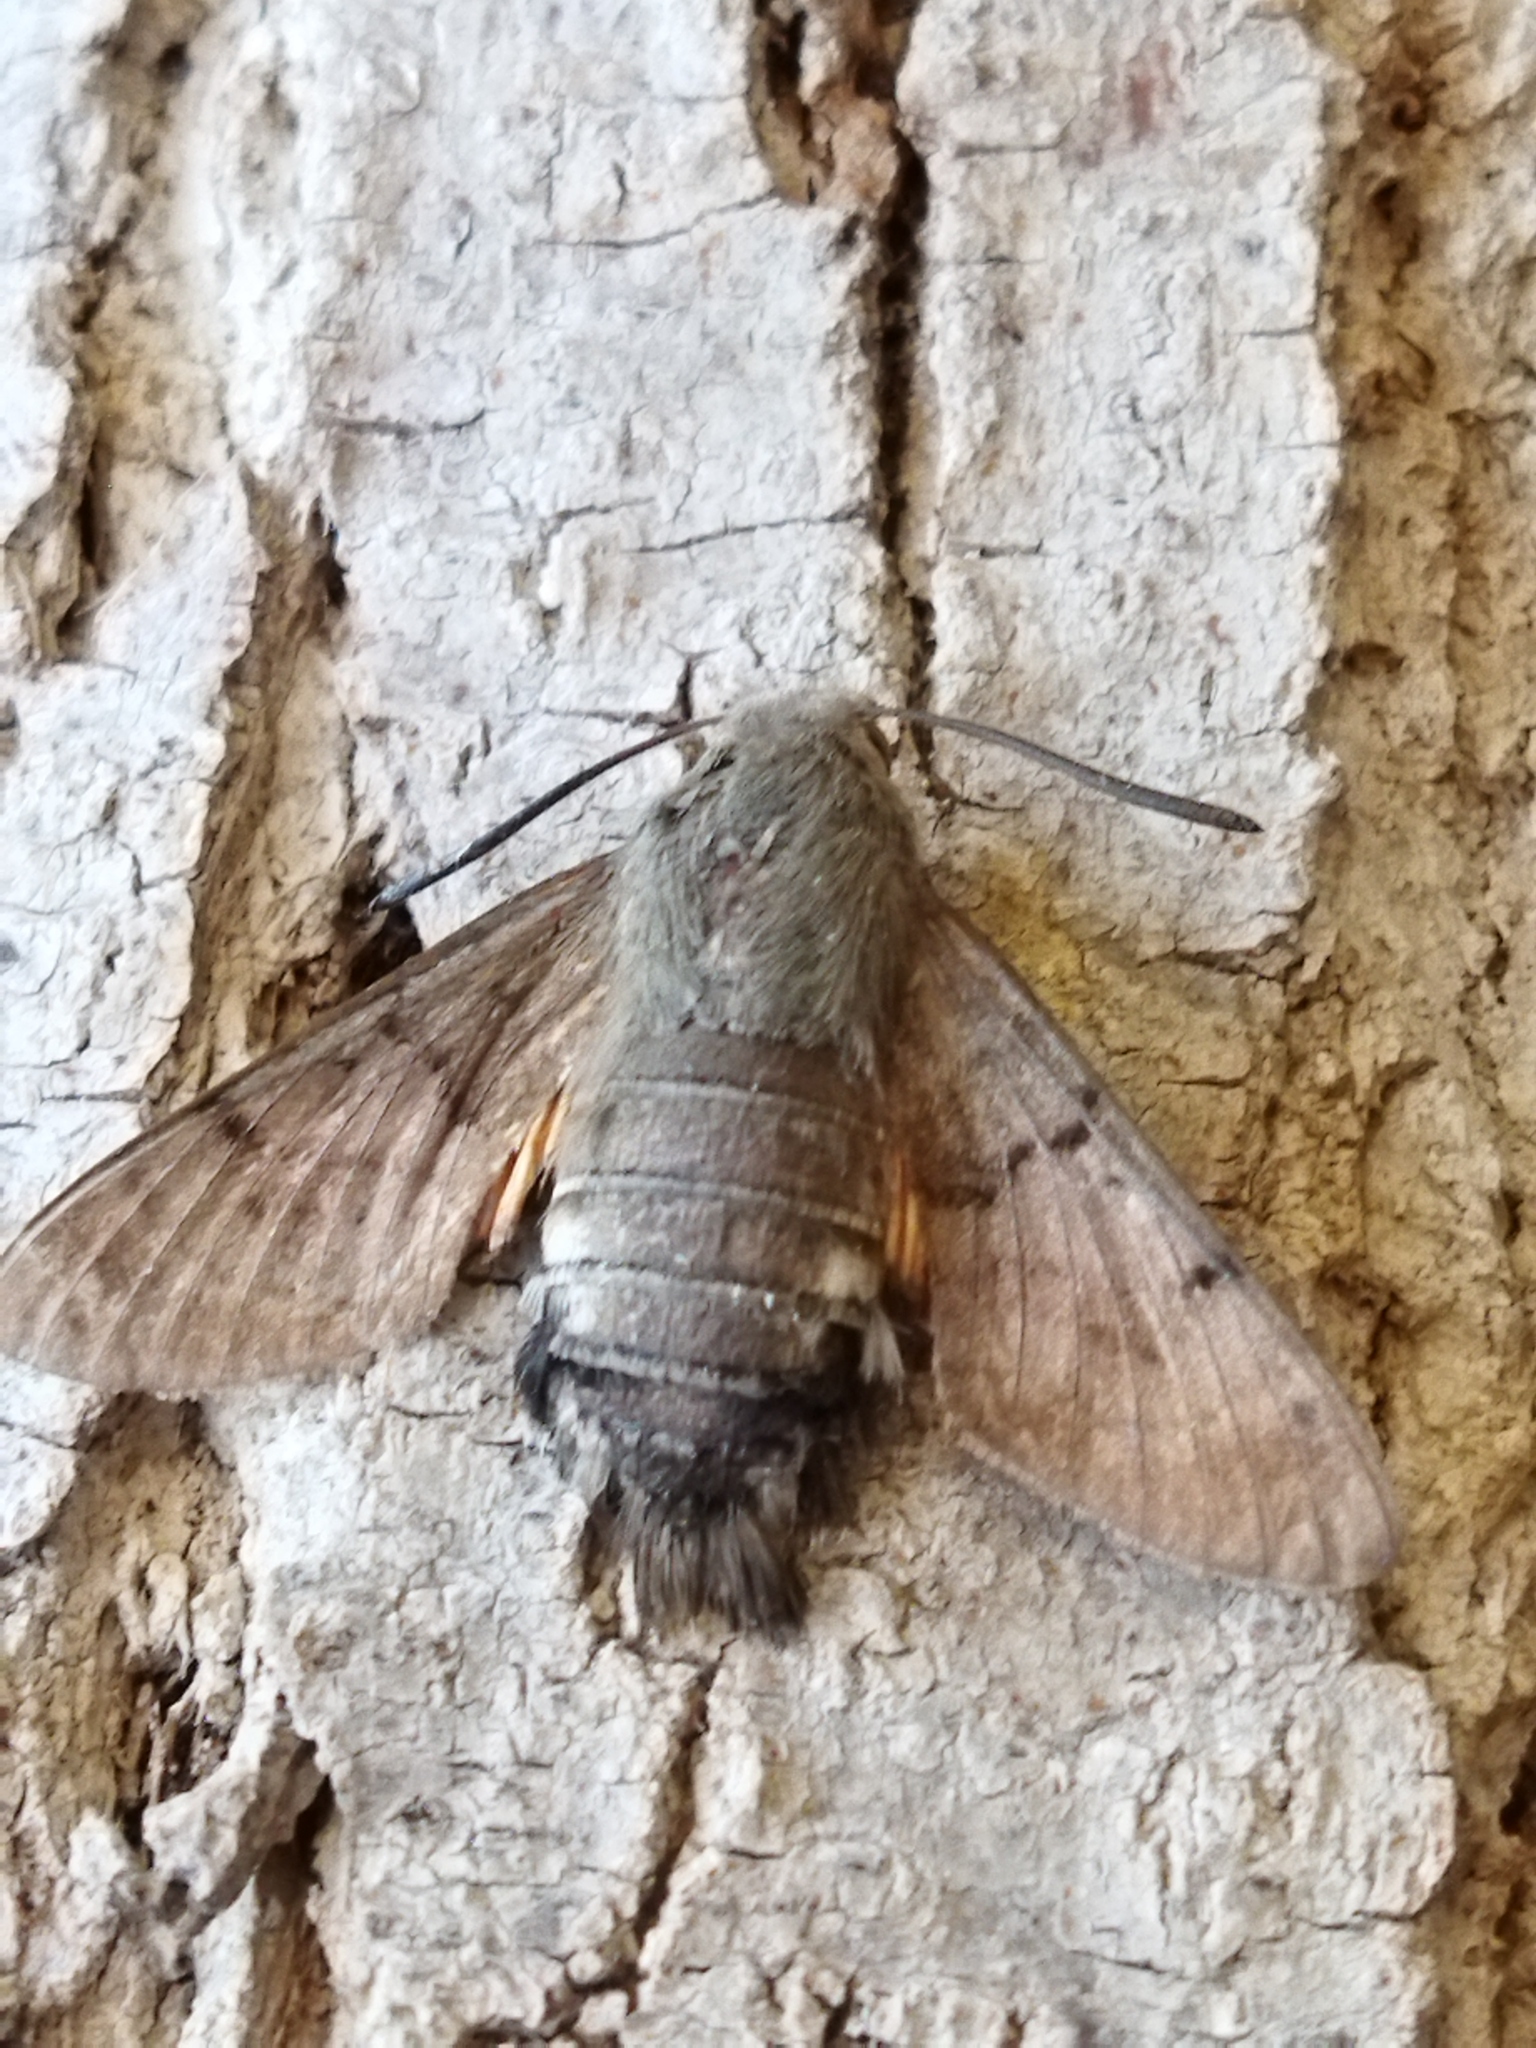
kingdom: Animalia
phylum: Arthropoda
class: Insecta
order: Lepidoptera
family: Sphingidae
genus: Macroglossum
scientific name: Macroglossum stellatarum
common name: Humming-bird hawk-moth
